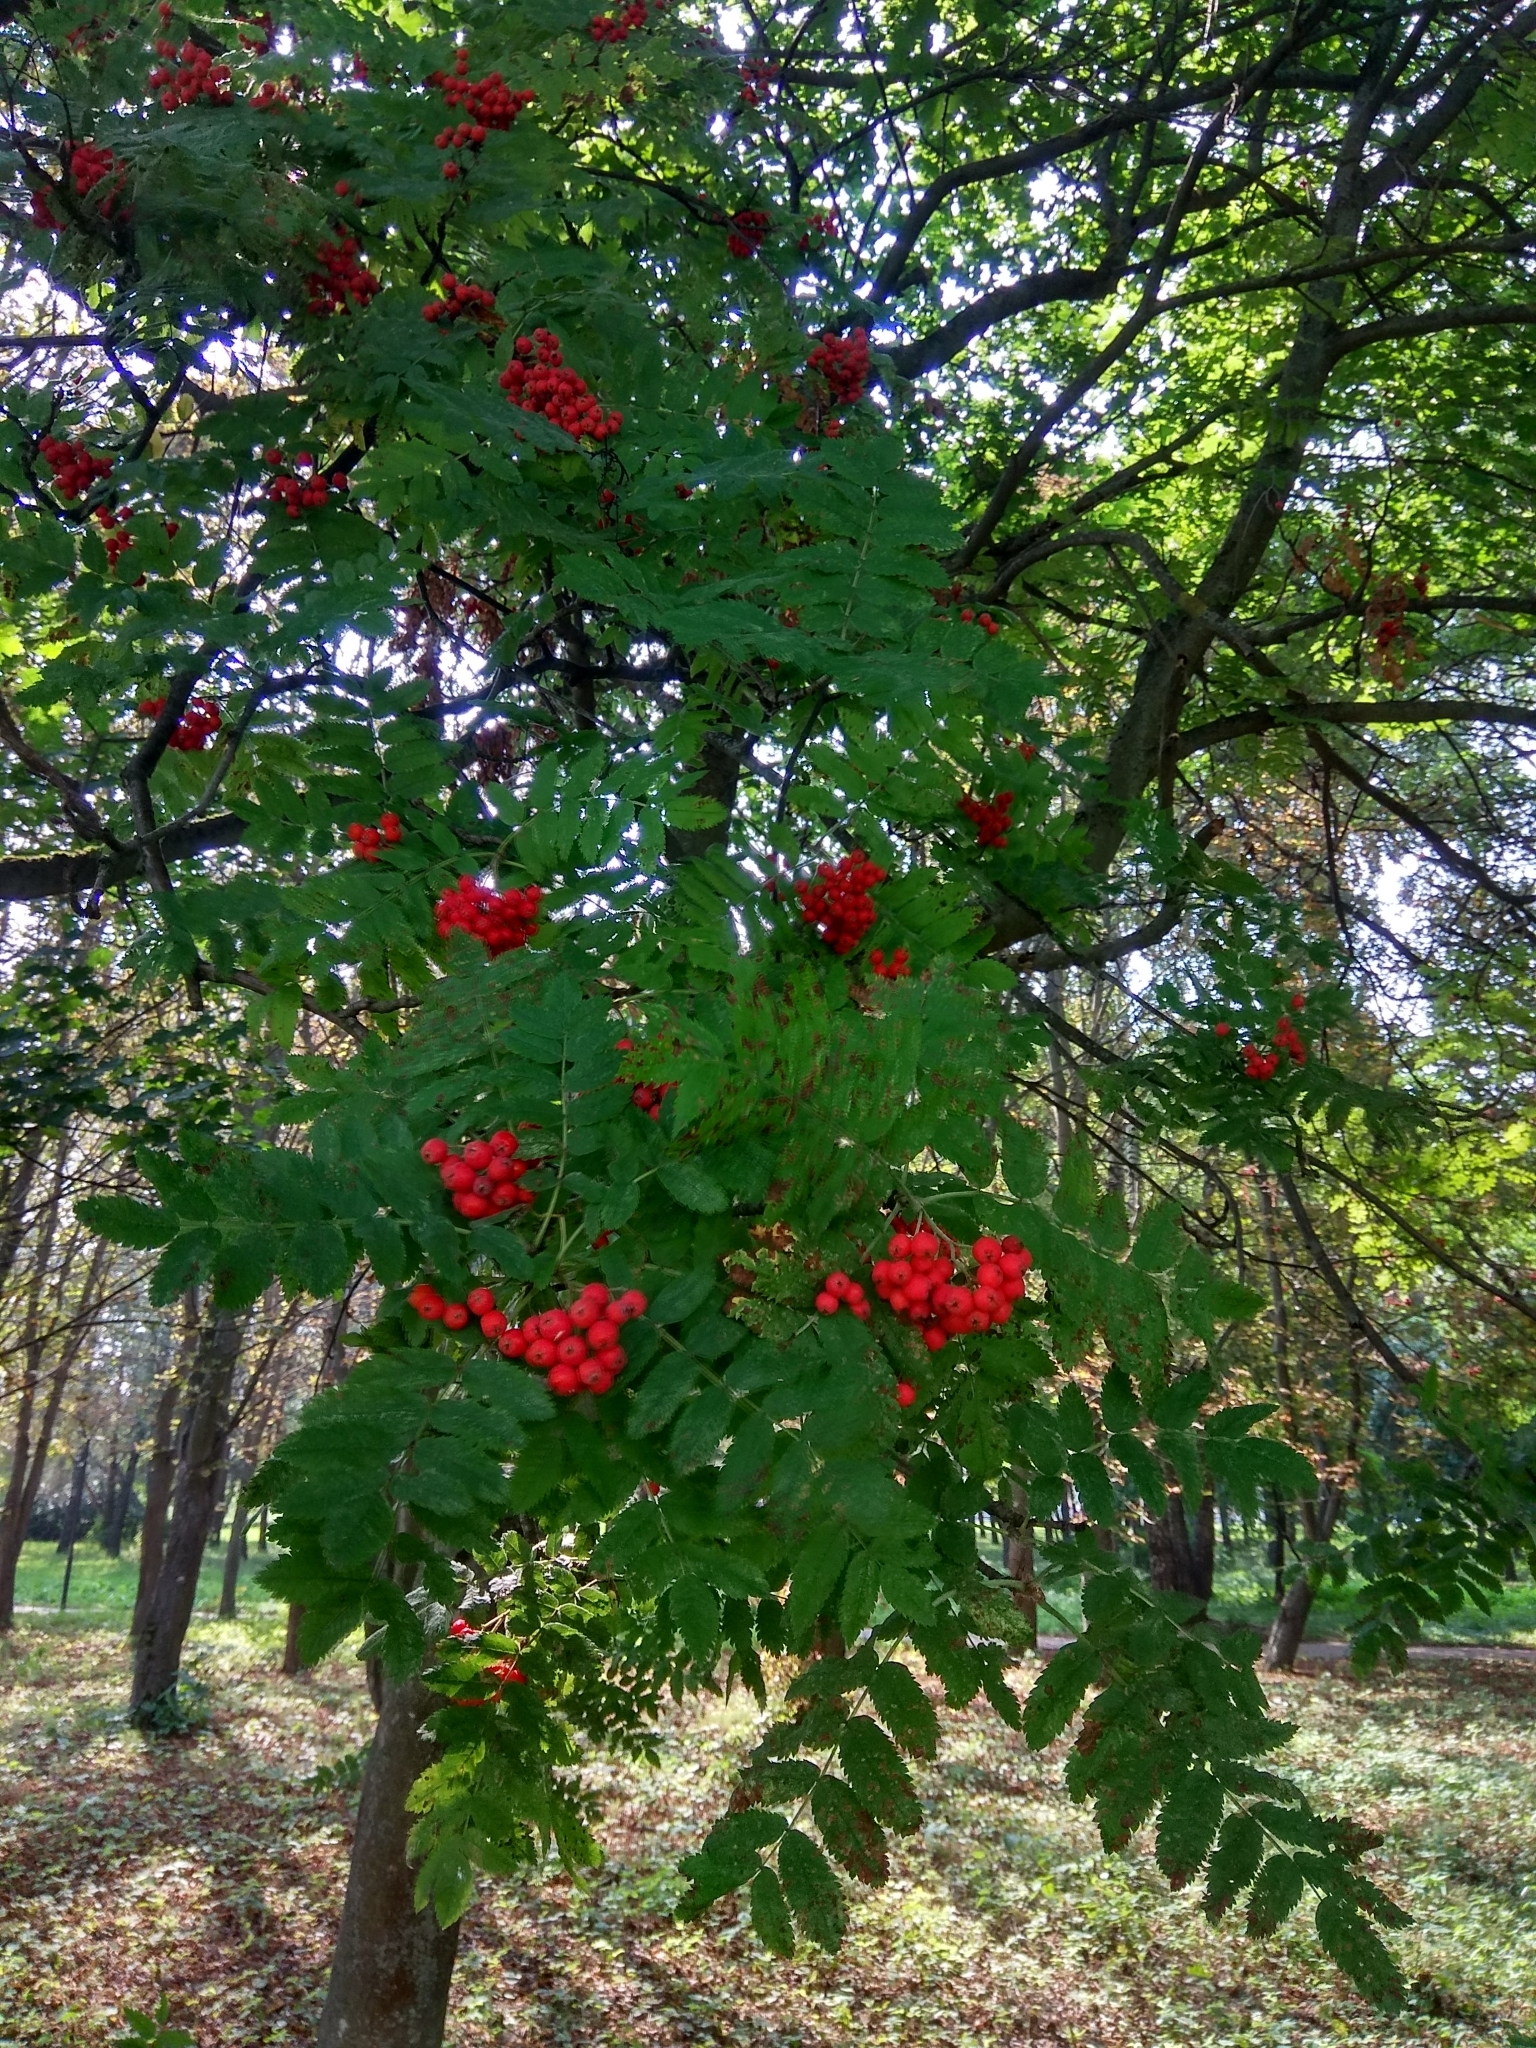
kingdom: Plantae
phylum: Tracheophyta
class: Magnoliopsida
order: Rosales
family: Rosaceae
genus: Sorbus
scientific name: Sorbus aucuparia
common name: Rowan
